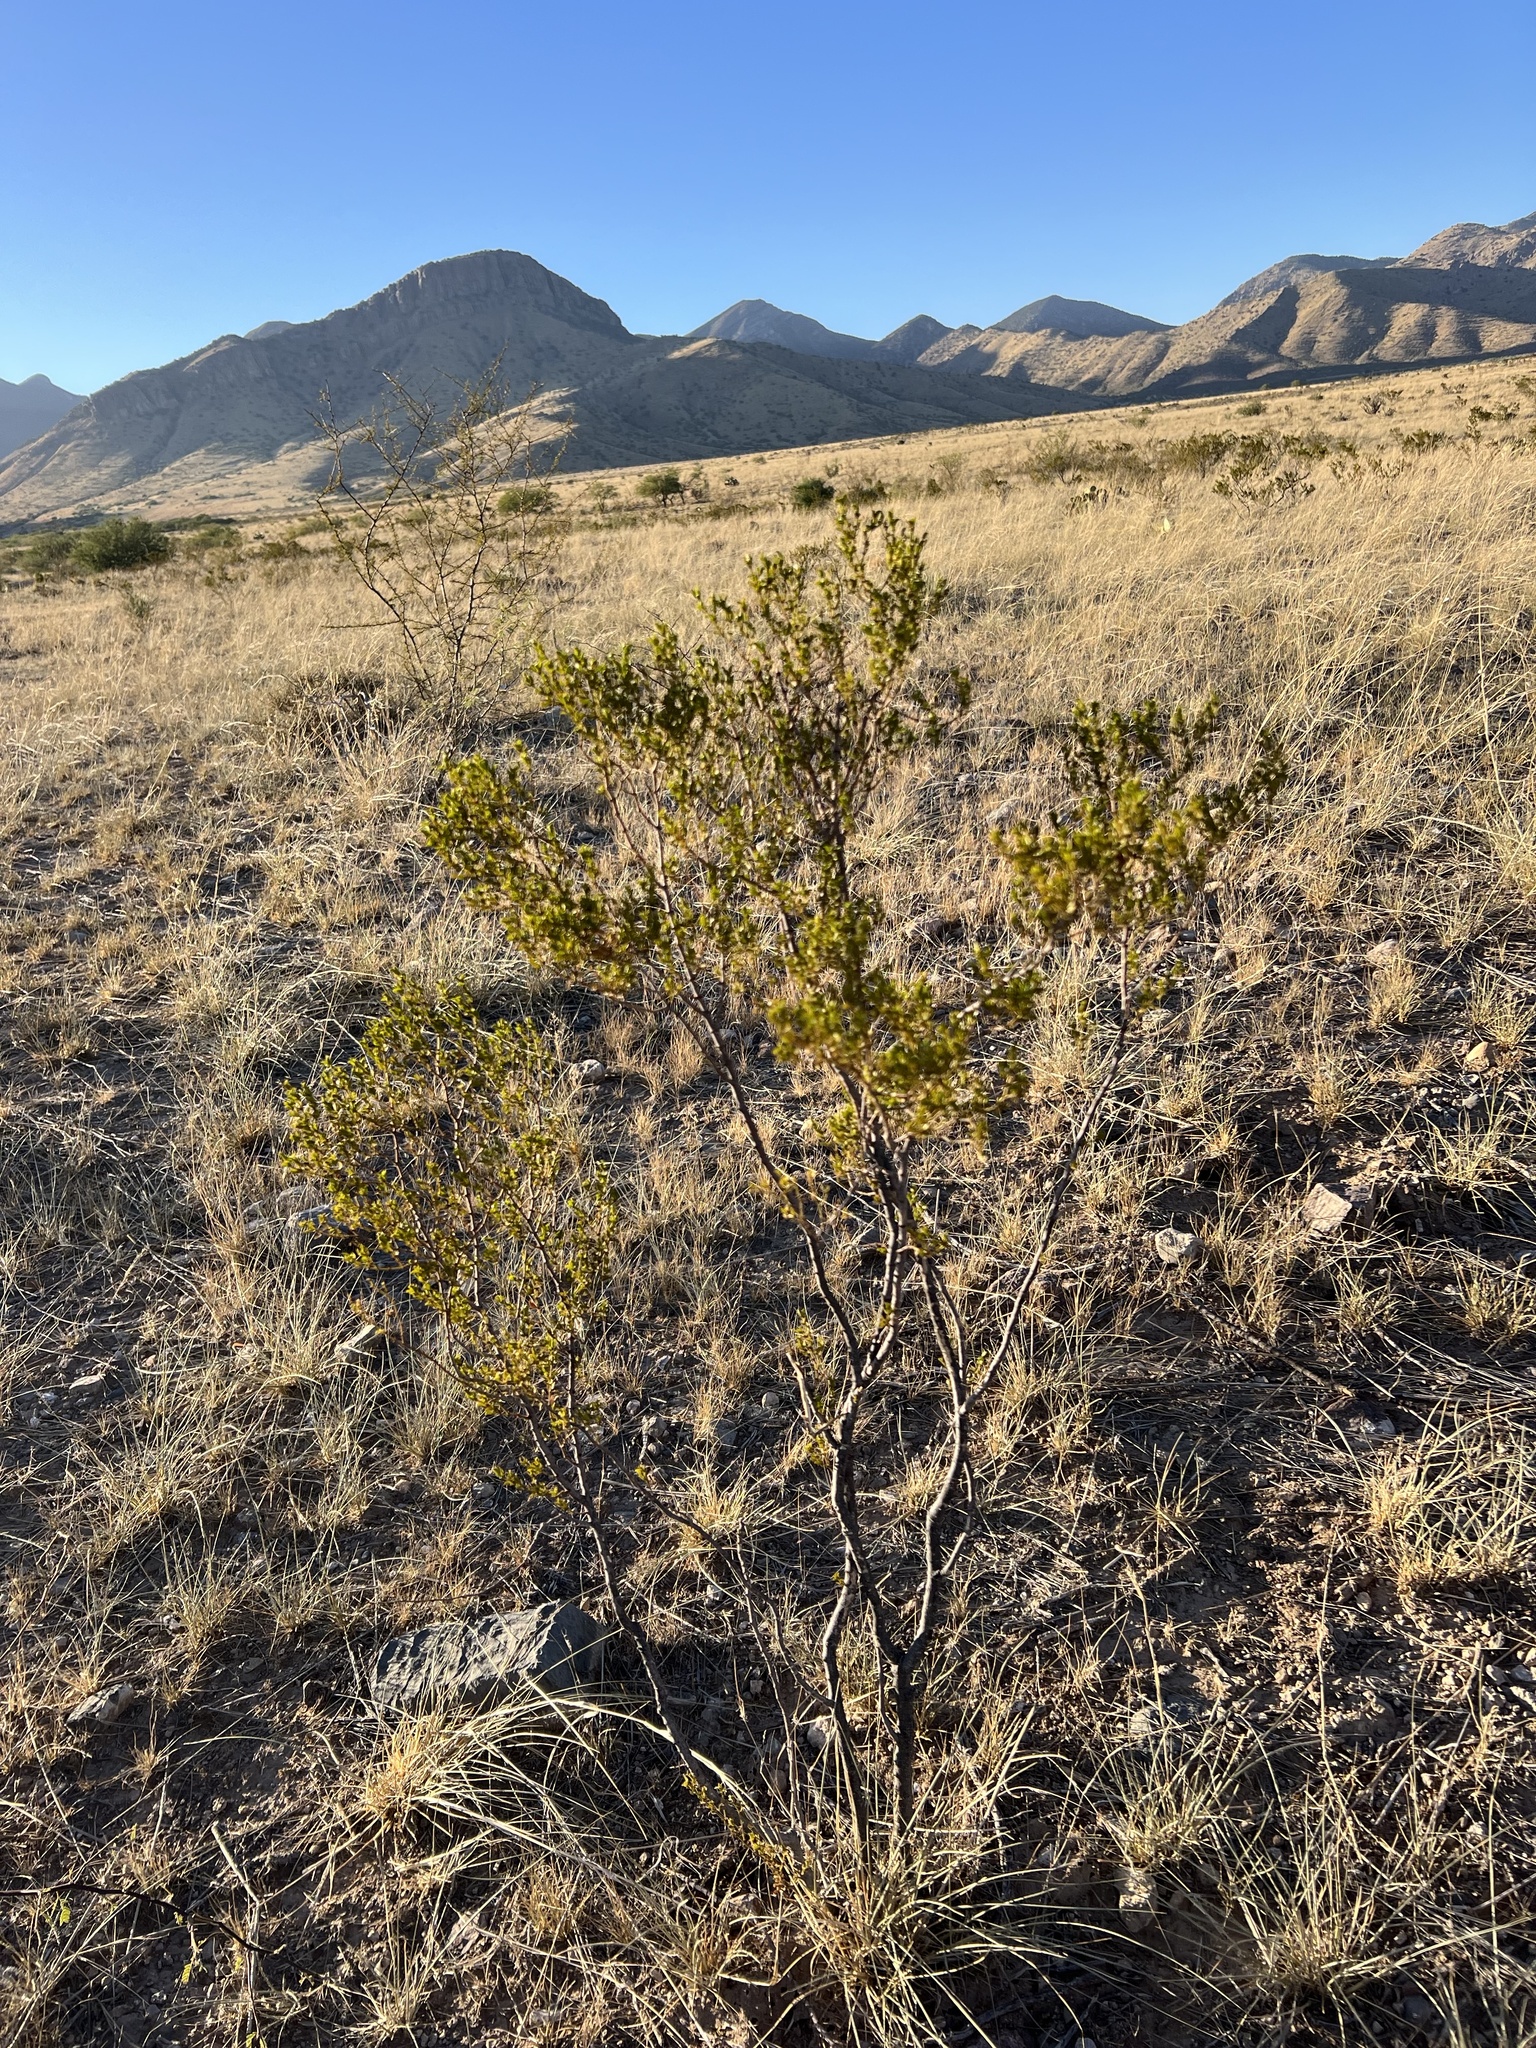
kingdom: Plantae
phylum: Tracheophyta
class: Magnoliopsida
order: Zygophyllales
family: Zygophyllaceae
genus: Larrea
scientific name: Larrea tridentata
